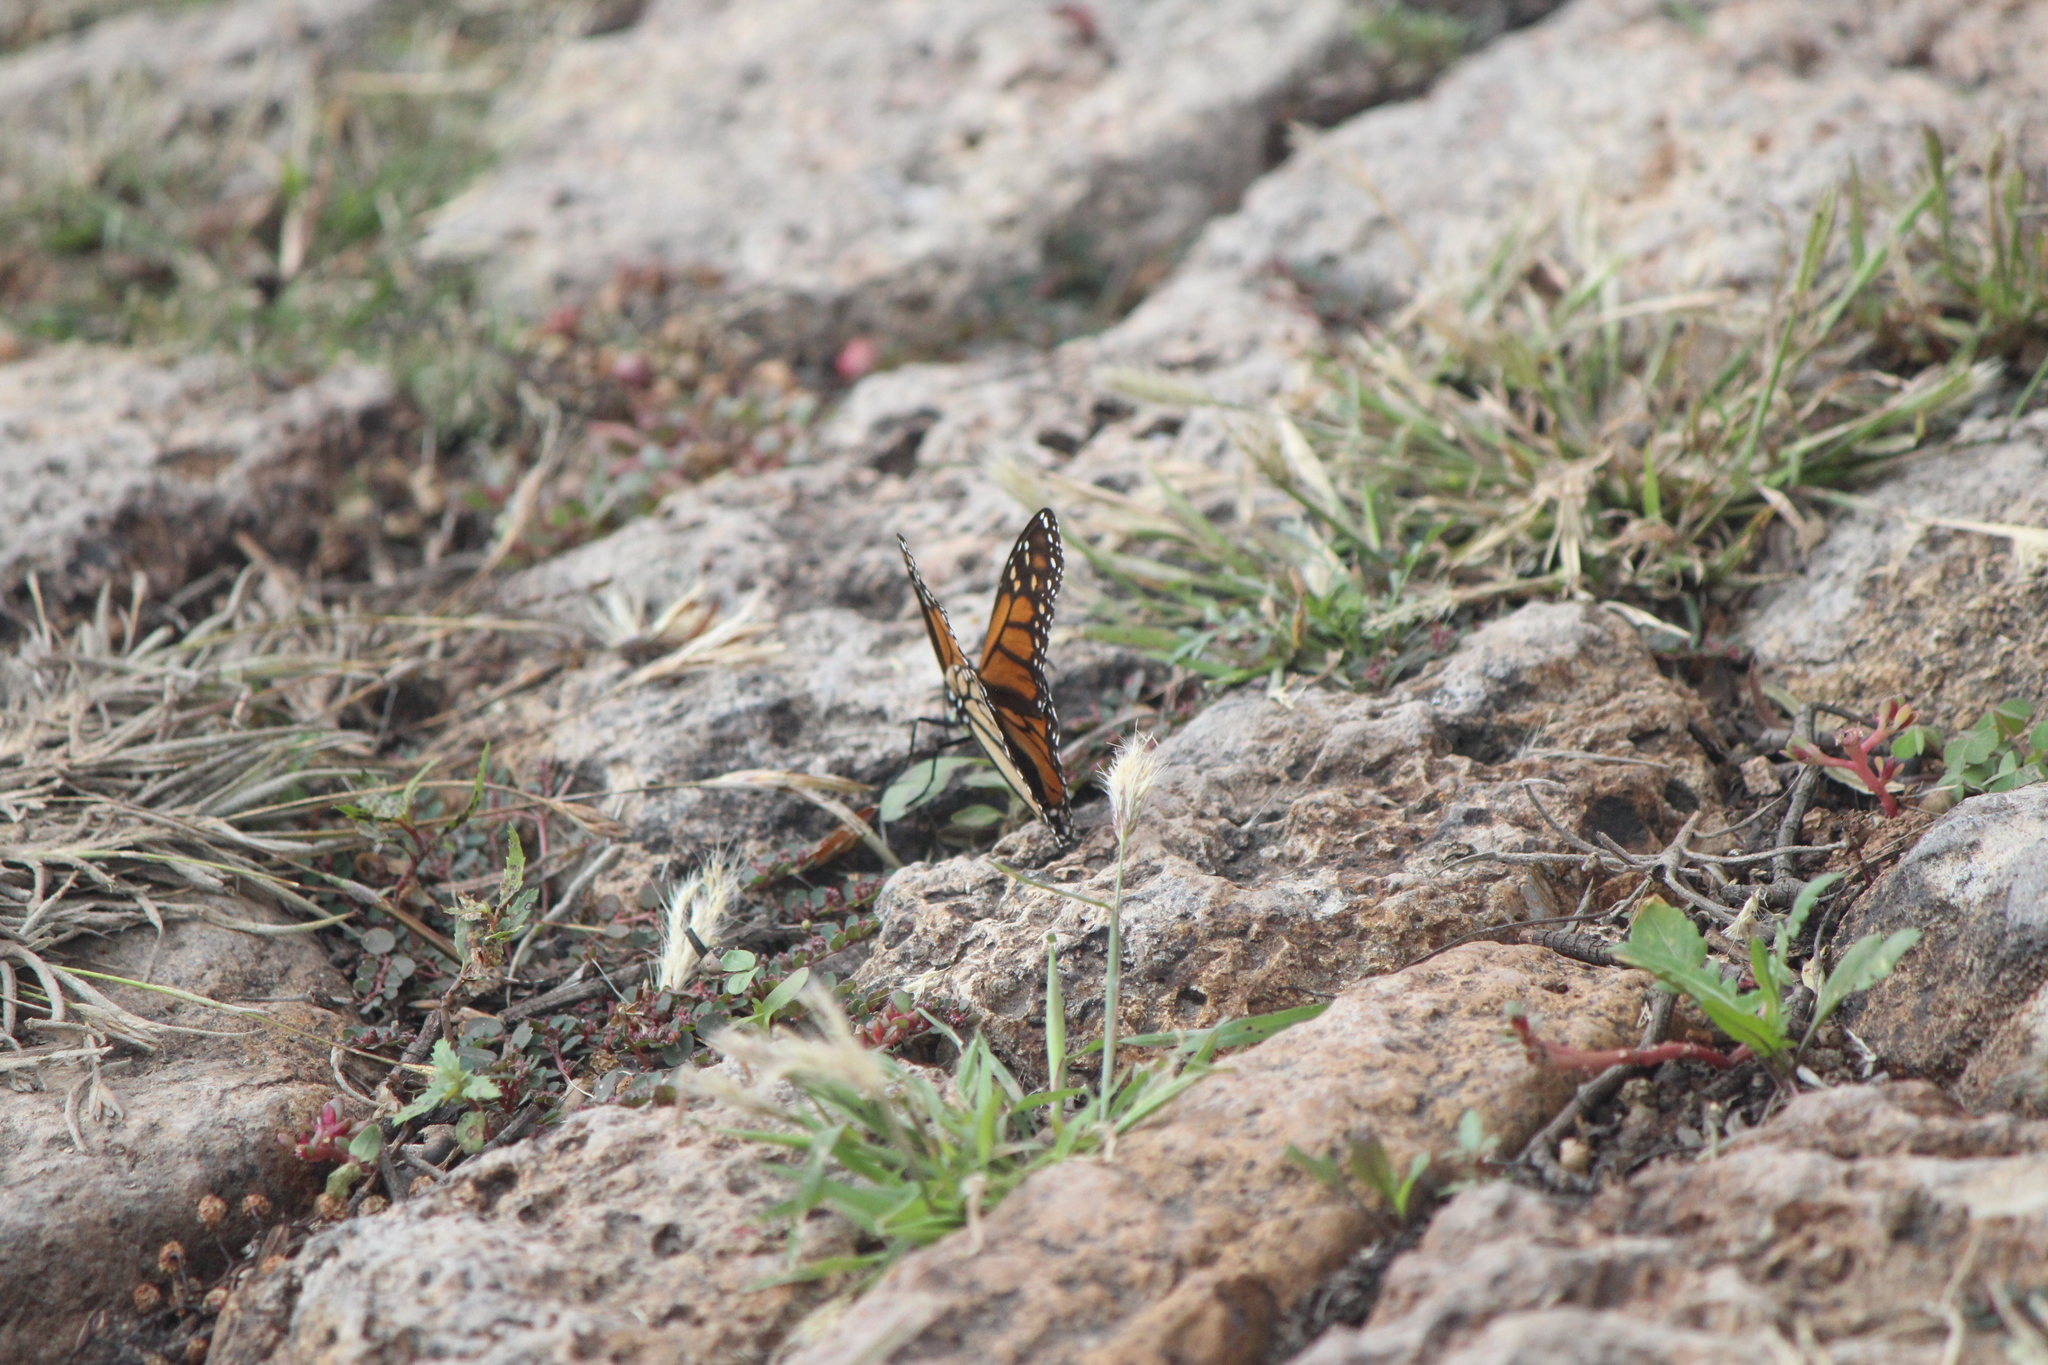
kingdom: Animalia
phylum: Arthropoda
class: Insecta
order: Lepidoptera
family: Nymphalidae
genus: Danaus
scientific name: Danaus plexippus
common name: Monarch
